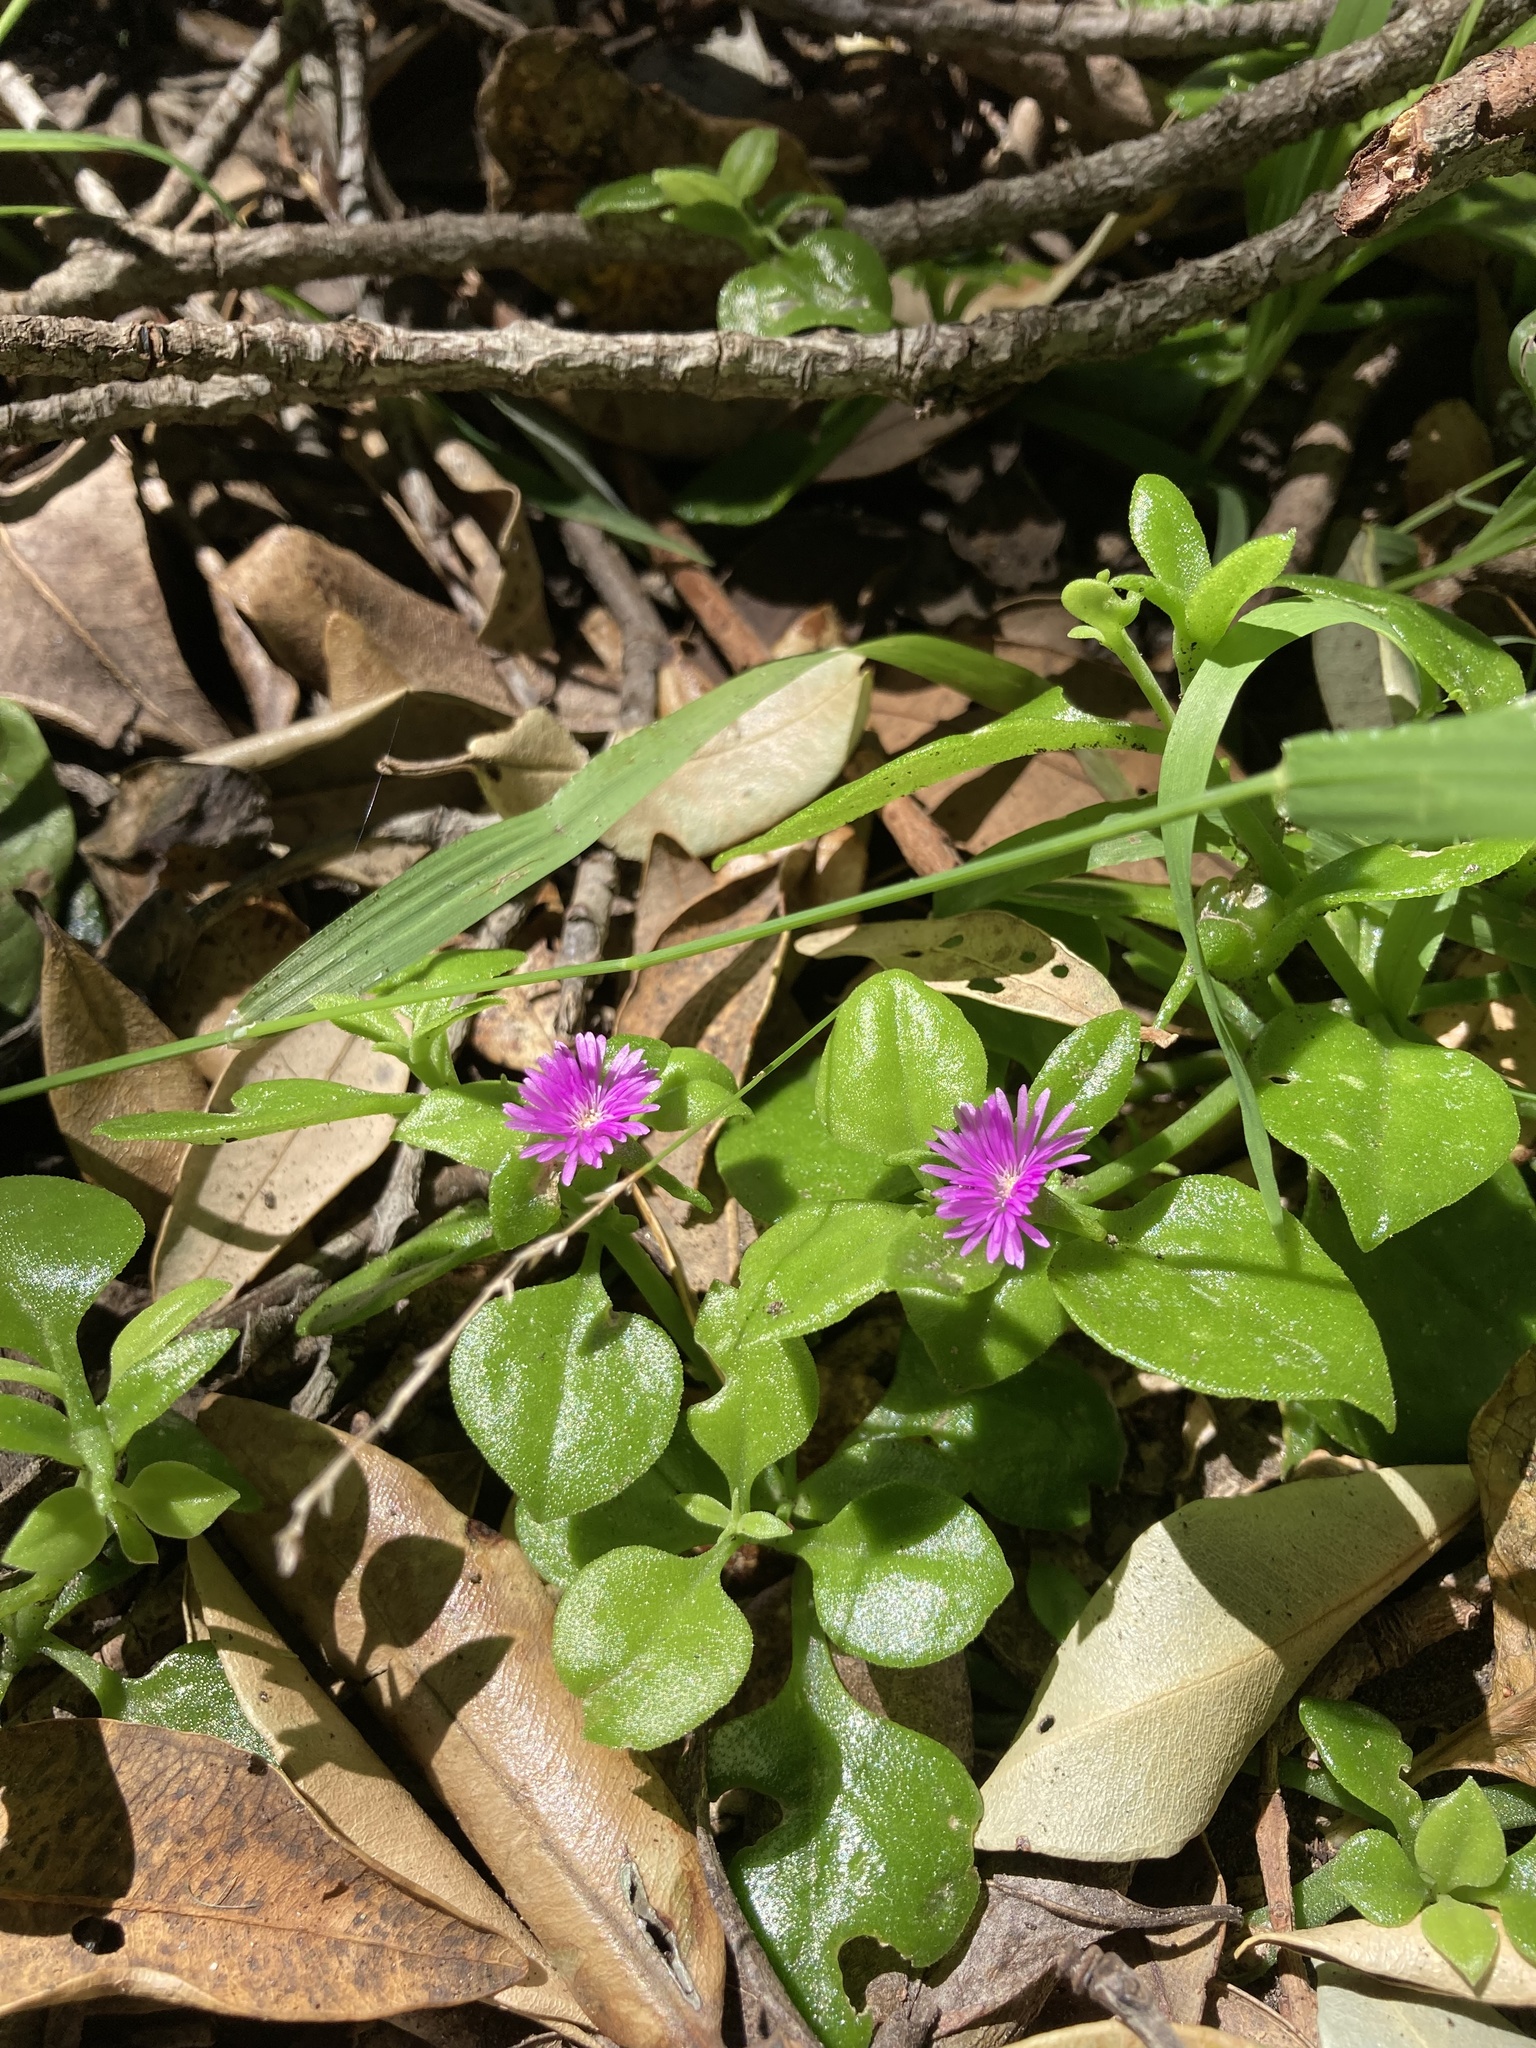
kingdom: Plantae
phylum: Tracheophyta
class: Magnoliopsida
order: Caryophyllales
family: Aizoaceae
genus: Mesembryanthemum
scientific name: Mesembryanthemum cordifolium
